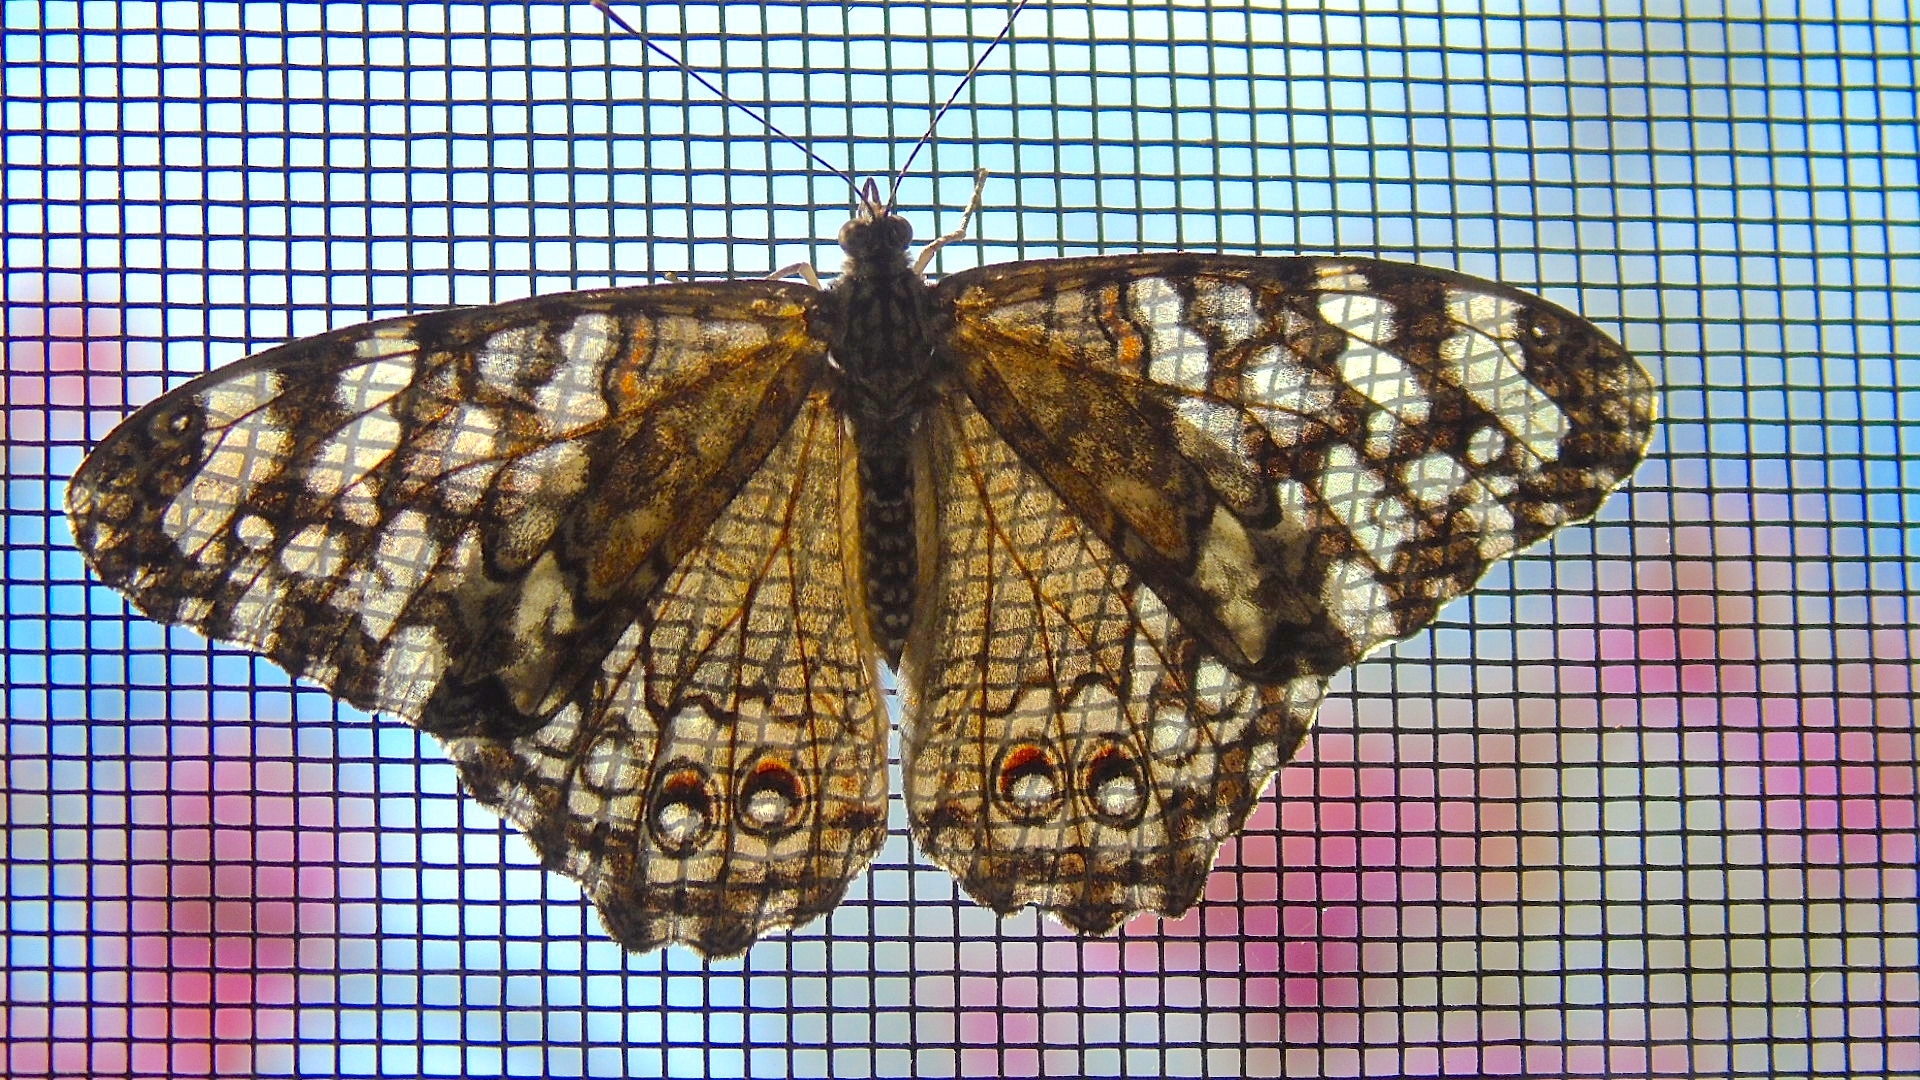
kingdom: Animalia
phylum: Arthropoda
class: Insecta
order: Lepidoptera
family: Nymphalidae
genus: Hamadryas
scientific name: Hamadryas februa
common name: Gray cracker
